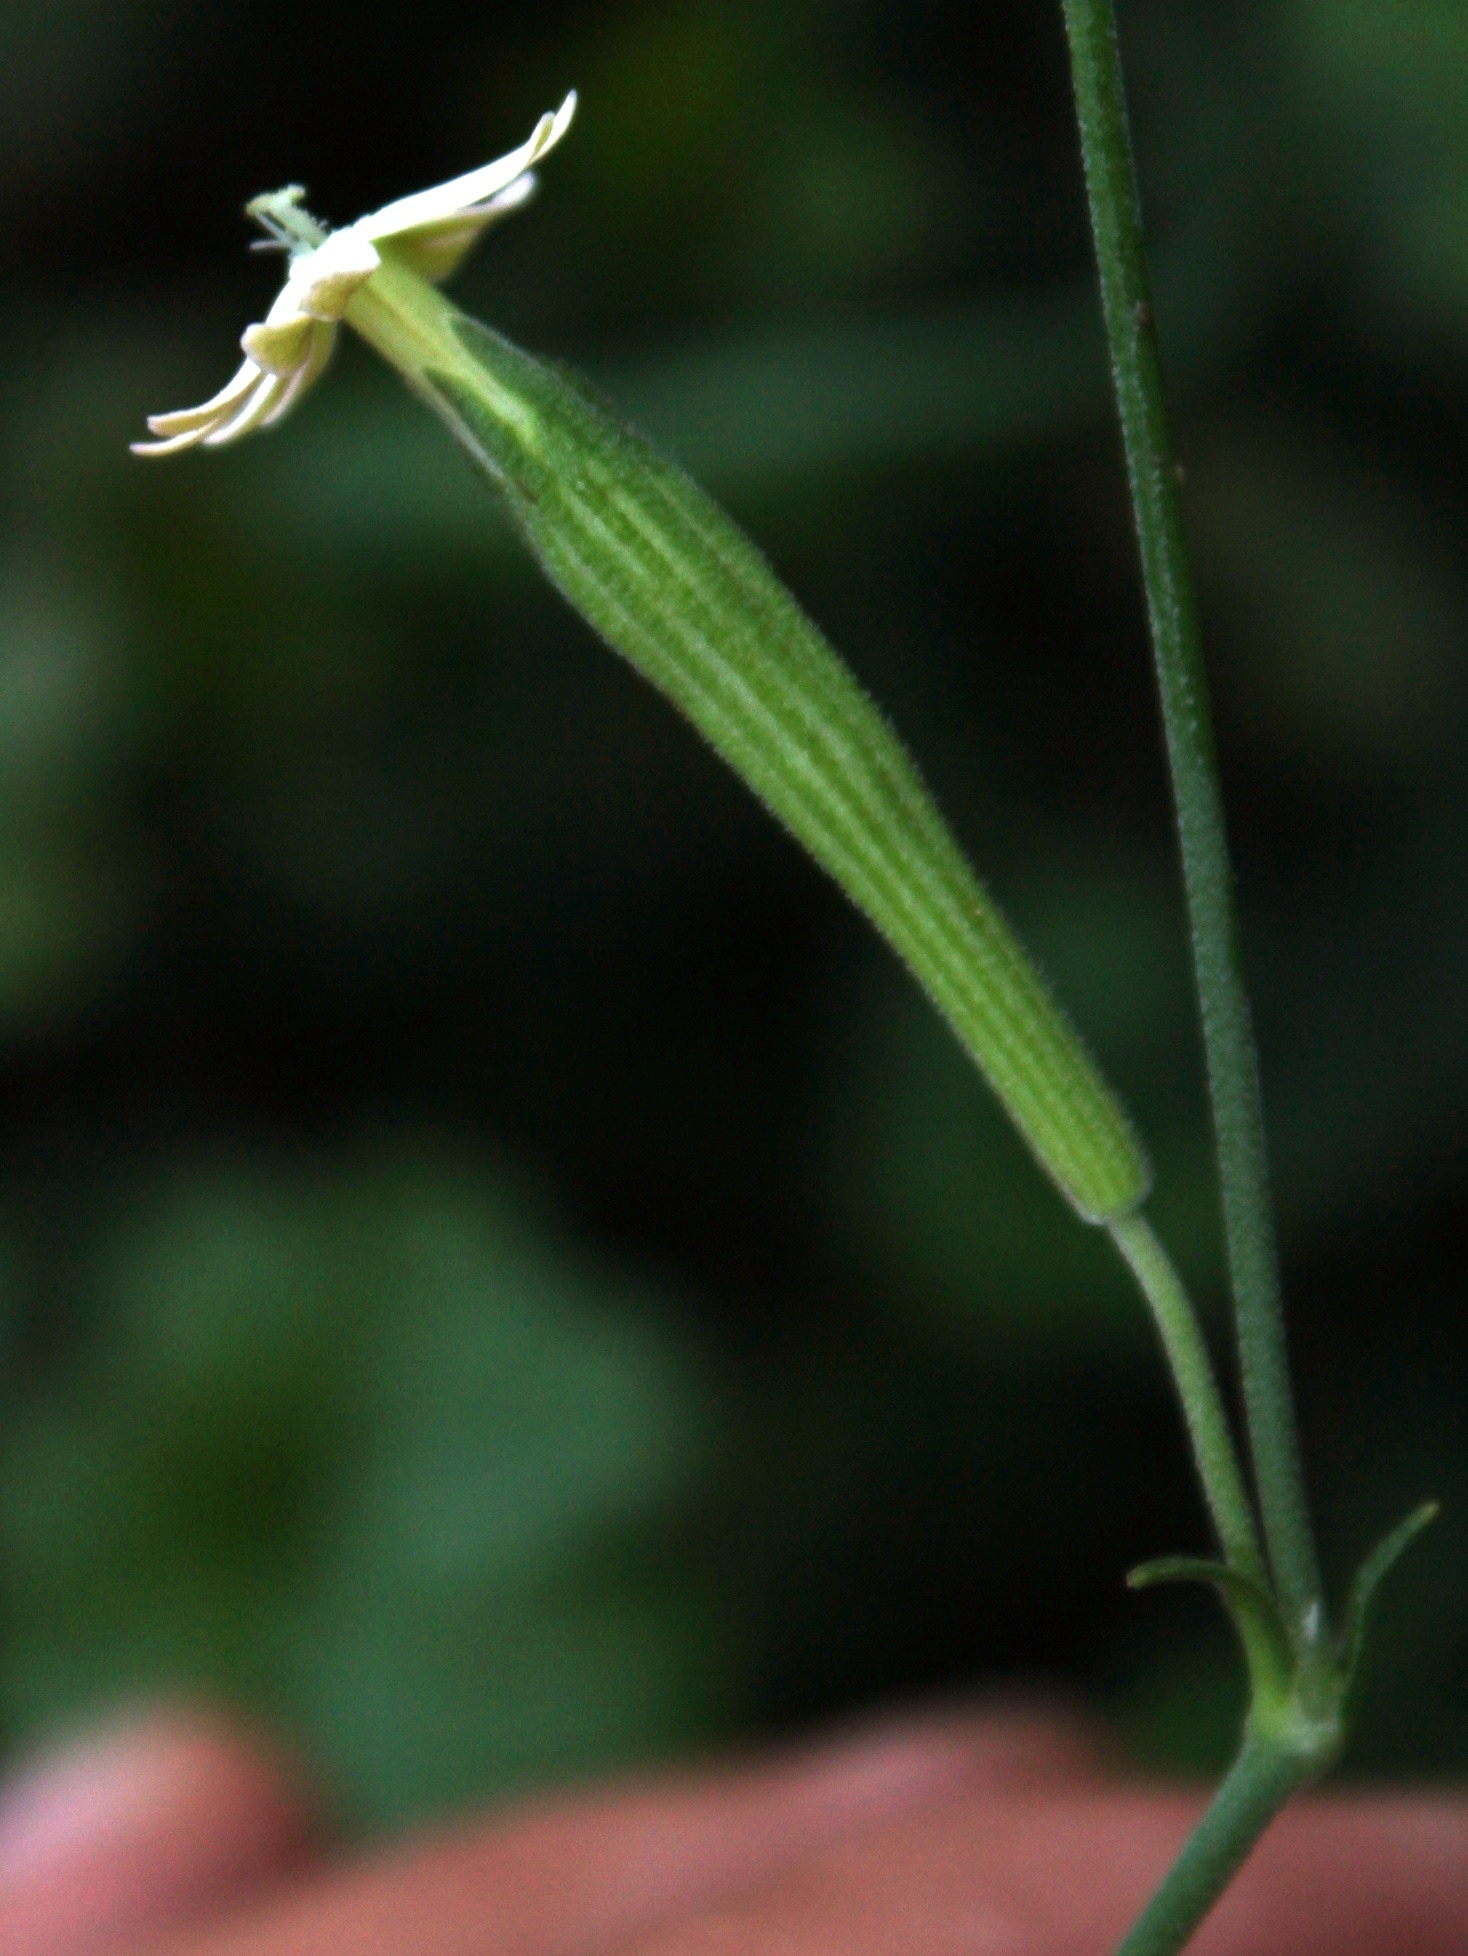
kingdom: Plantae
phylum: Tracheophyta
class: Magnoliopsida
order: Caryophyllales
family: Caryophyllaceae
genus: Silene
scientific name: Silene burchellii
